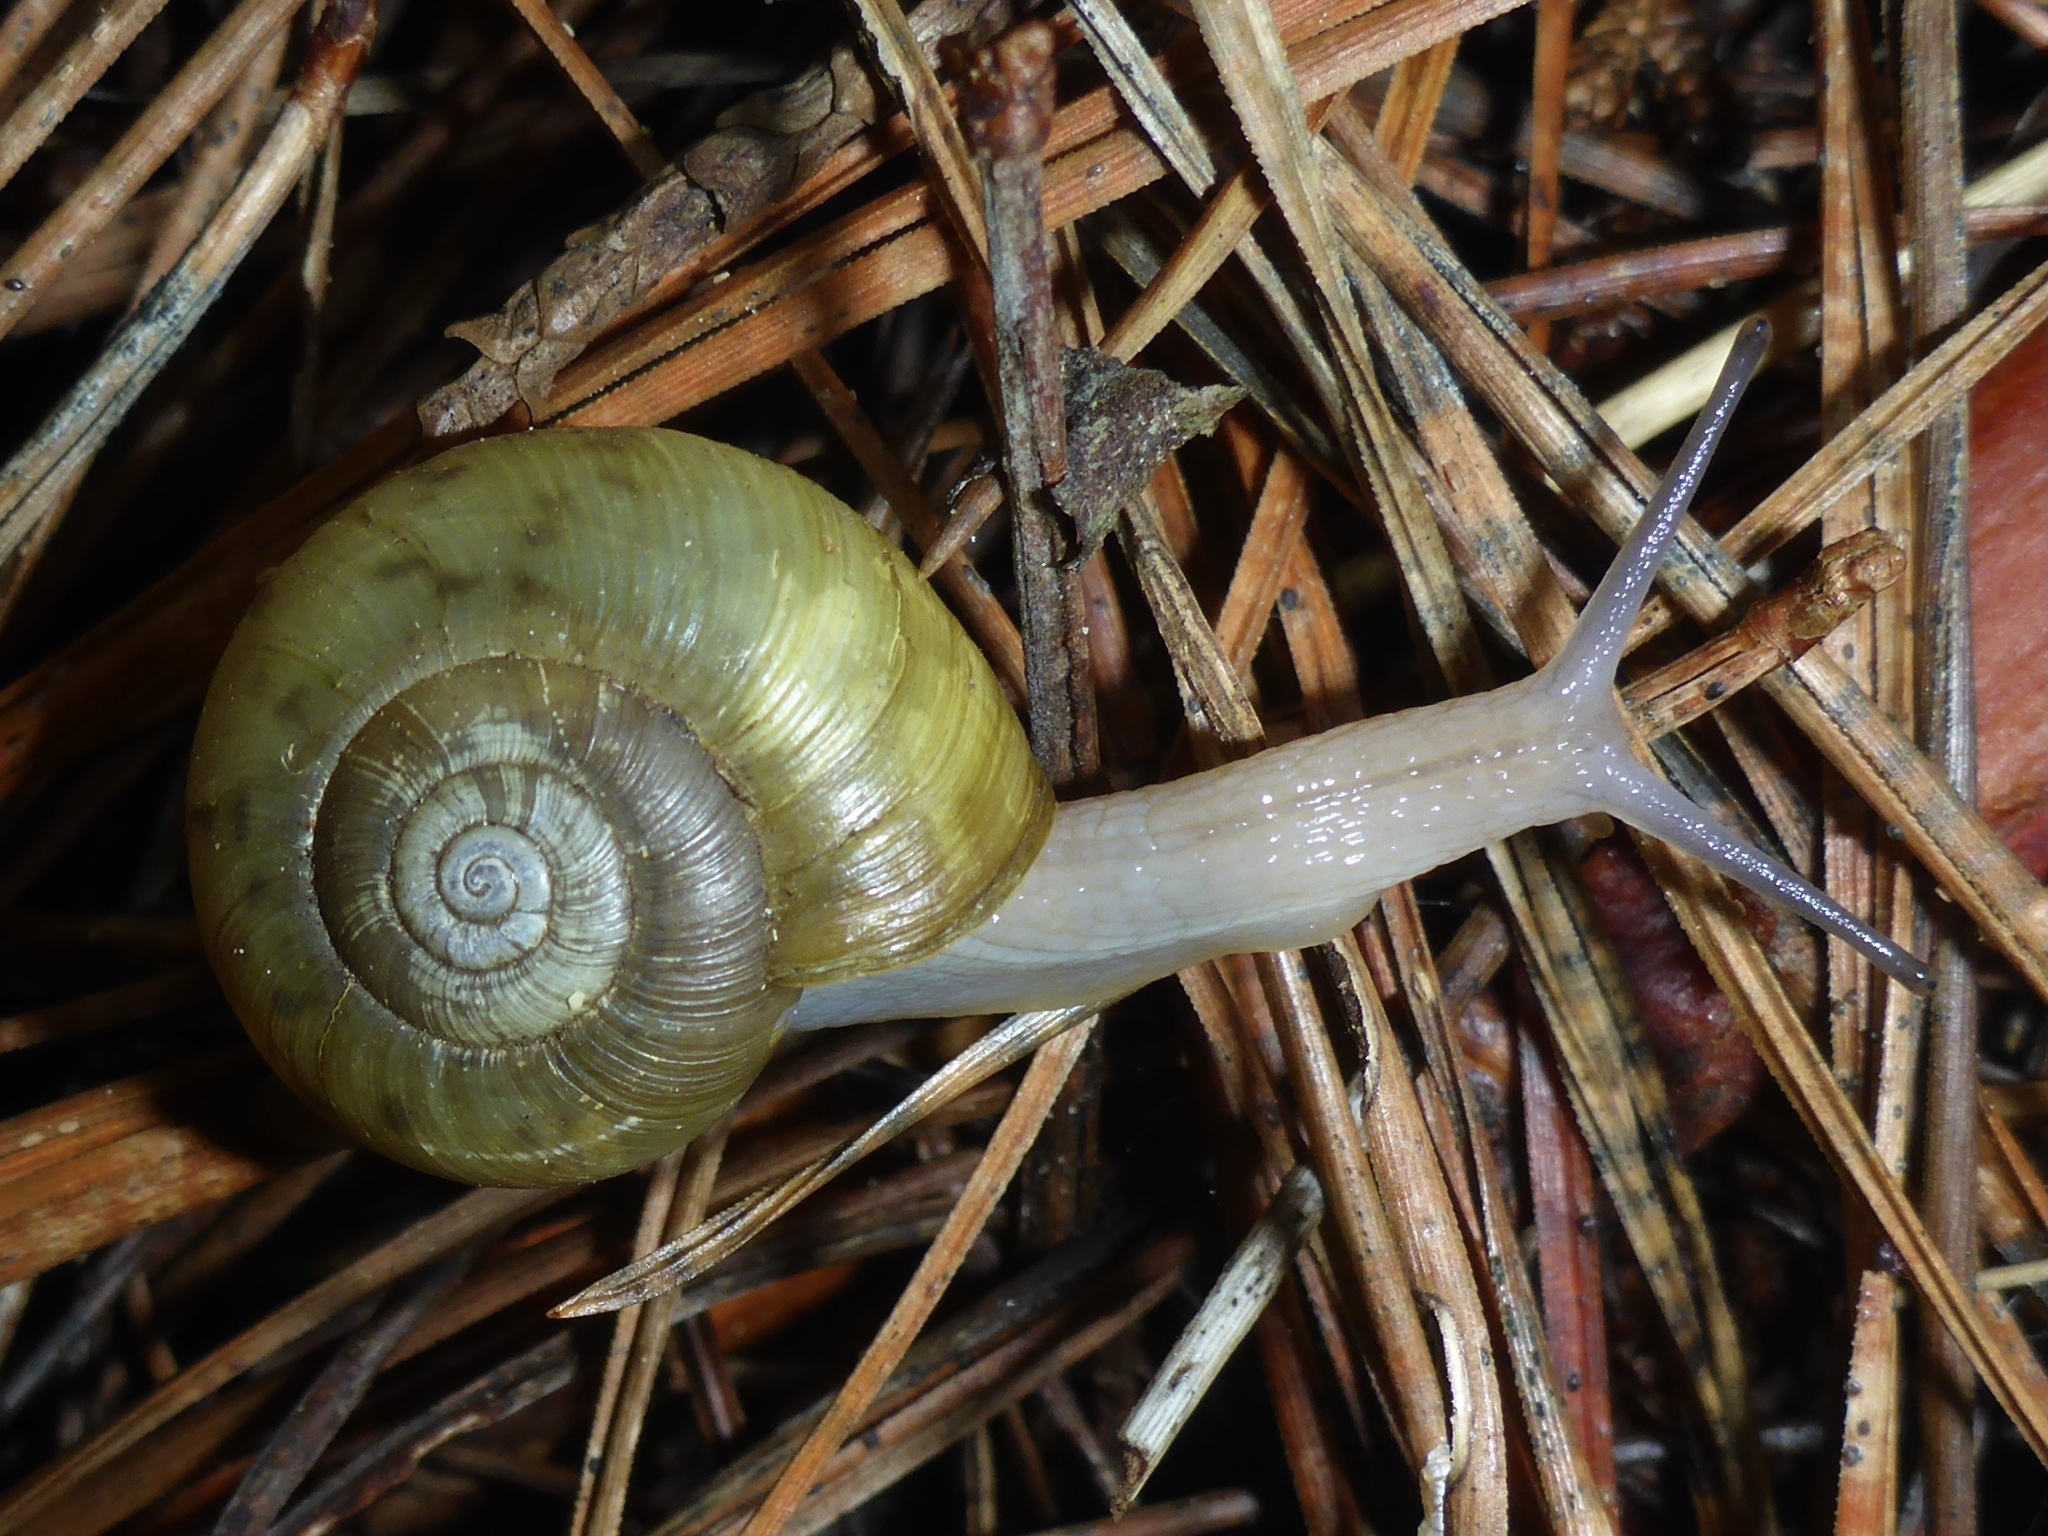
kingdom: Animalia
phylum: Mollusca
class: Gastropoda
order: Stylommatophora
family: Haplotrematidae
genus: Haplotrema
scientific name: Haplotrema minimum
